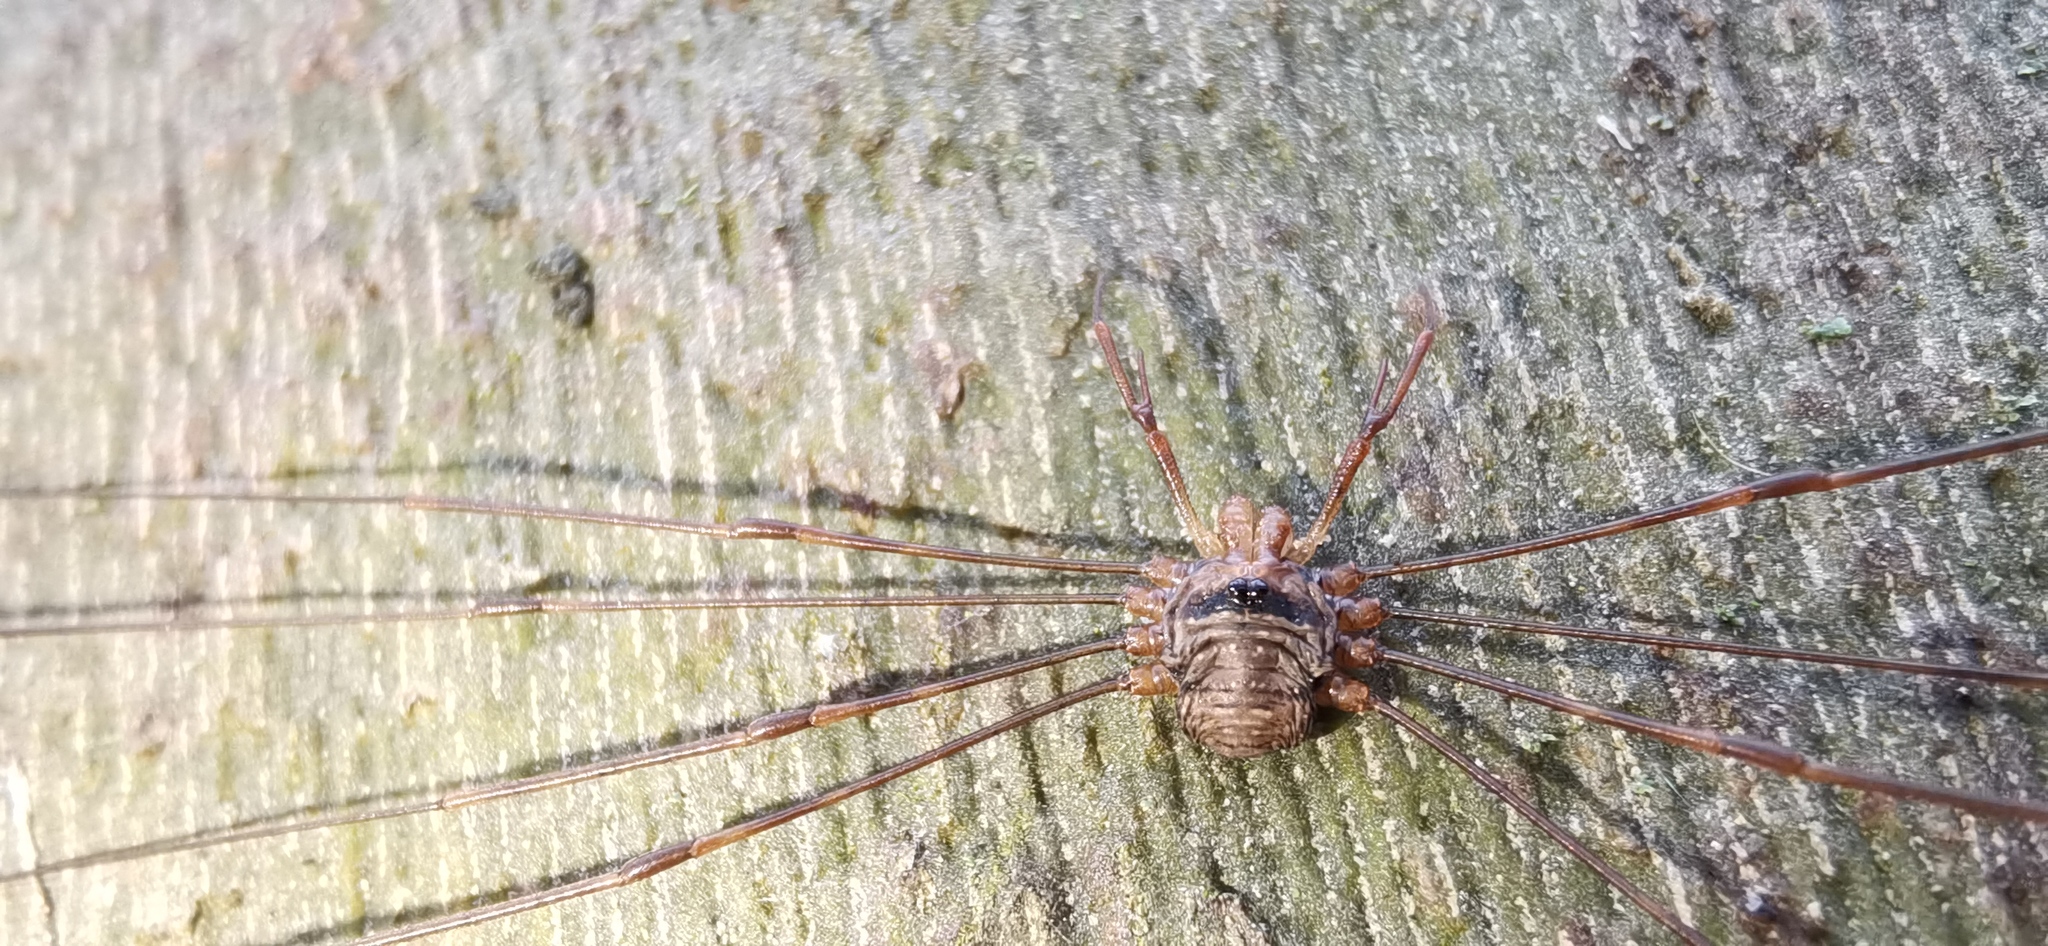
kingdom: Animalia
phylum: Arthropoda
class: Arachnida
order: Opiliones
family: Phalangiidae
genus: Dicranopalpus
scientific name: Dicranopalpus ramosus
